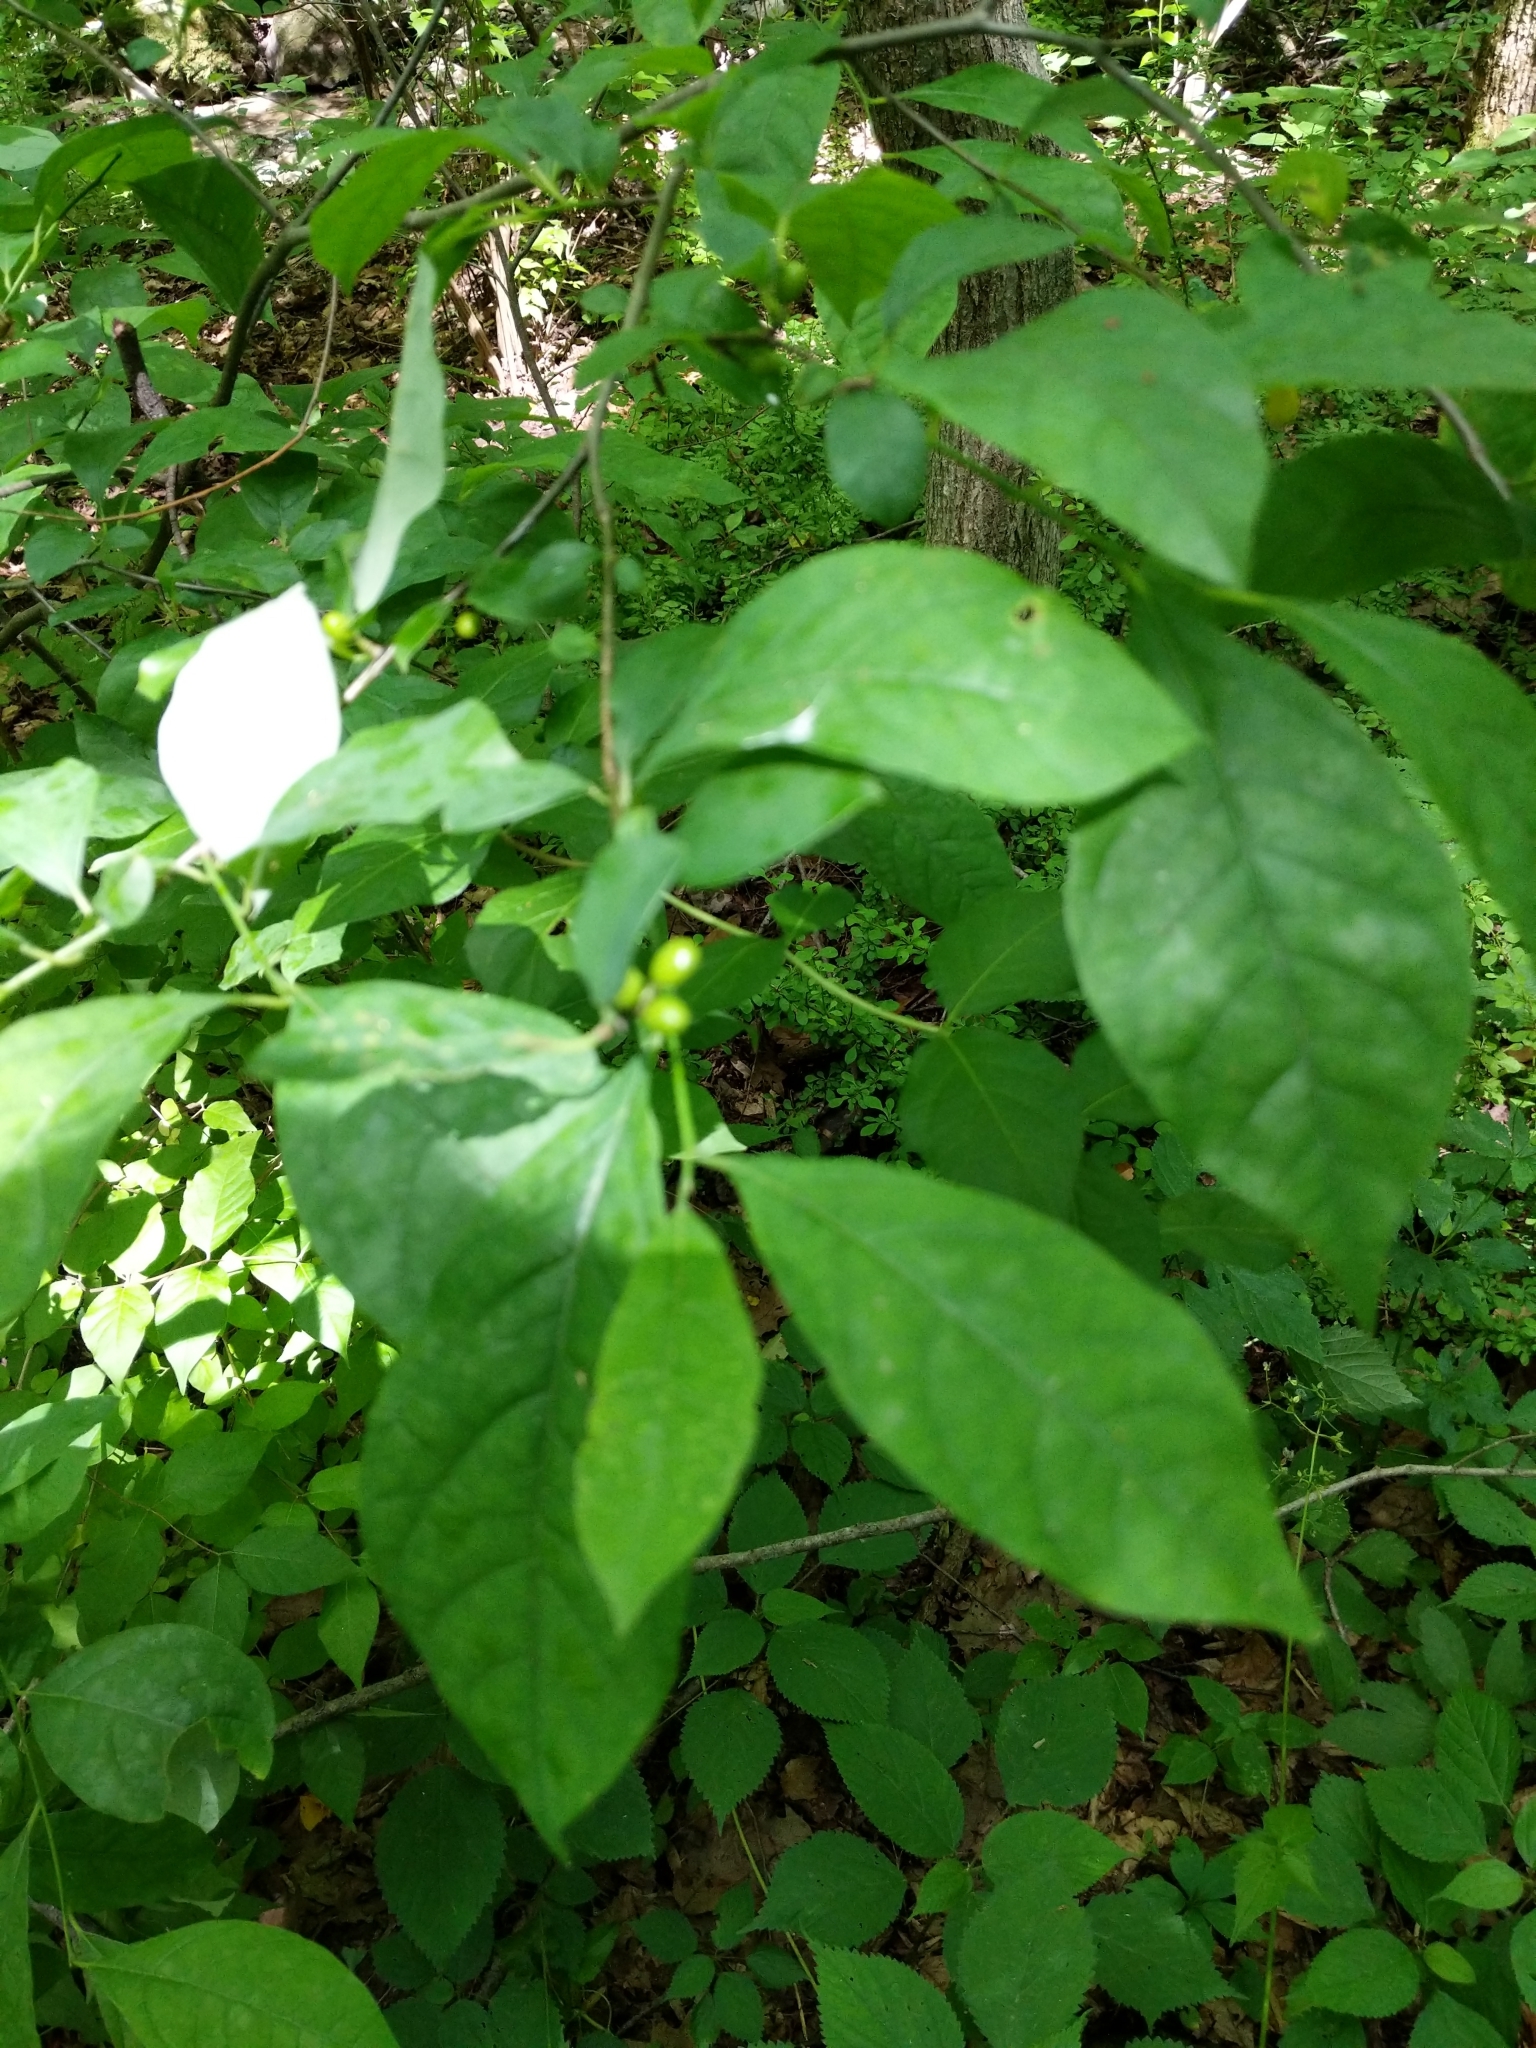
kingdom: Plantae
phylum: Tracheophyta
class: Magnoliopsida
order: Laurales
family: Lauraceae
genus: Lindera
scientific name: Lindera benzoin
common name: Spicebush
